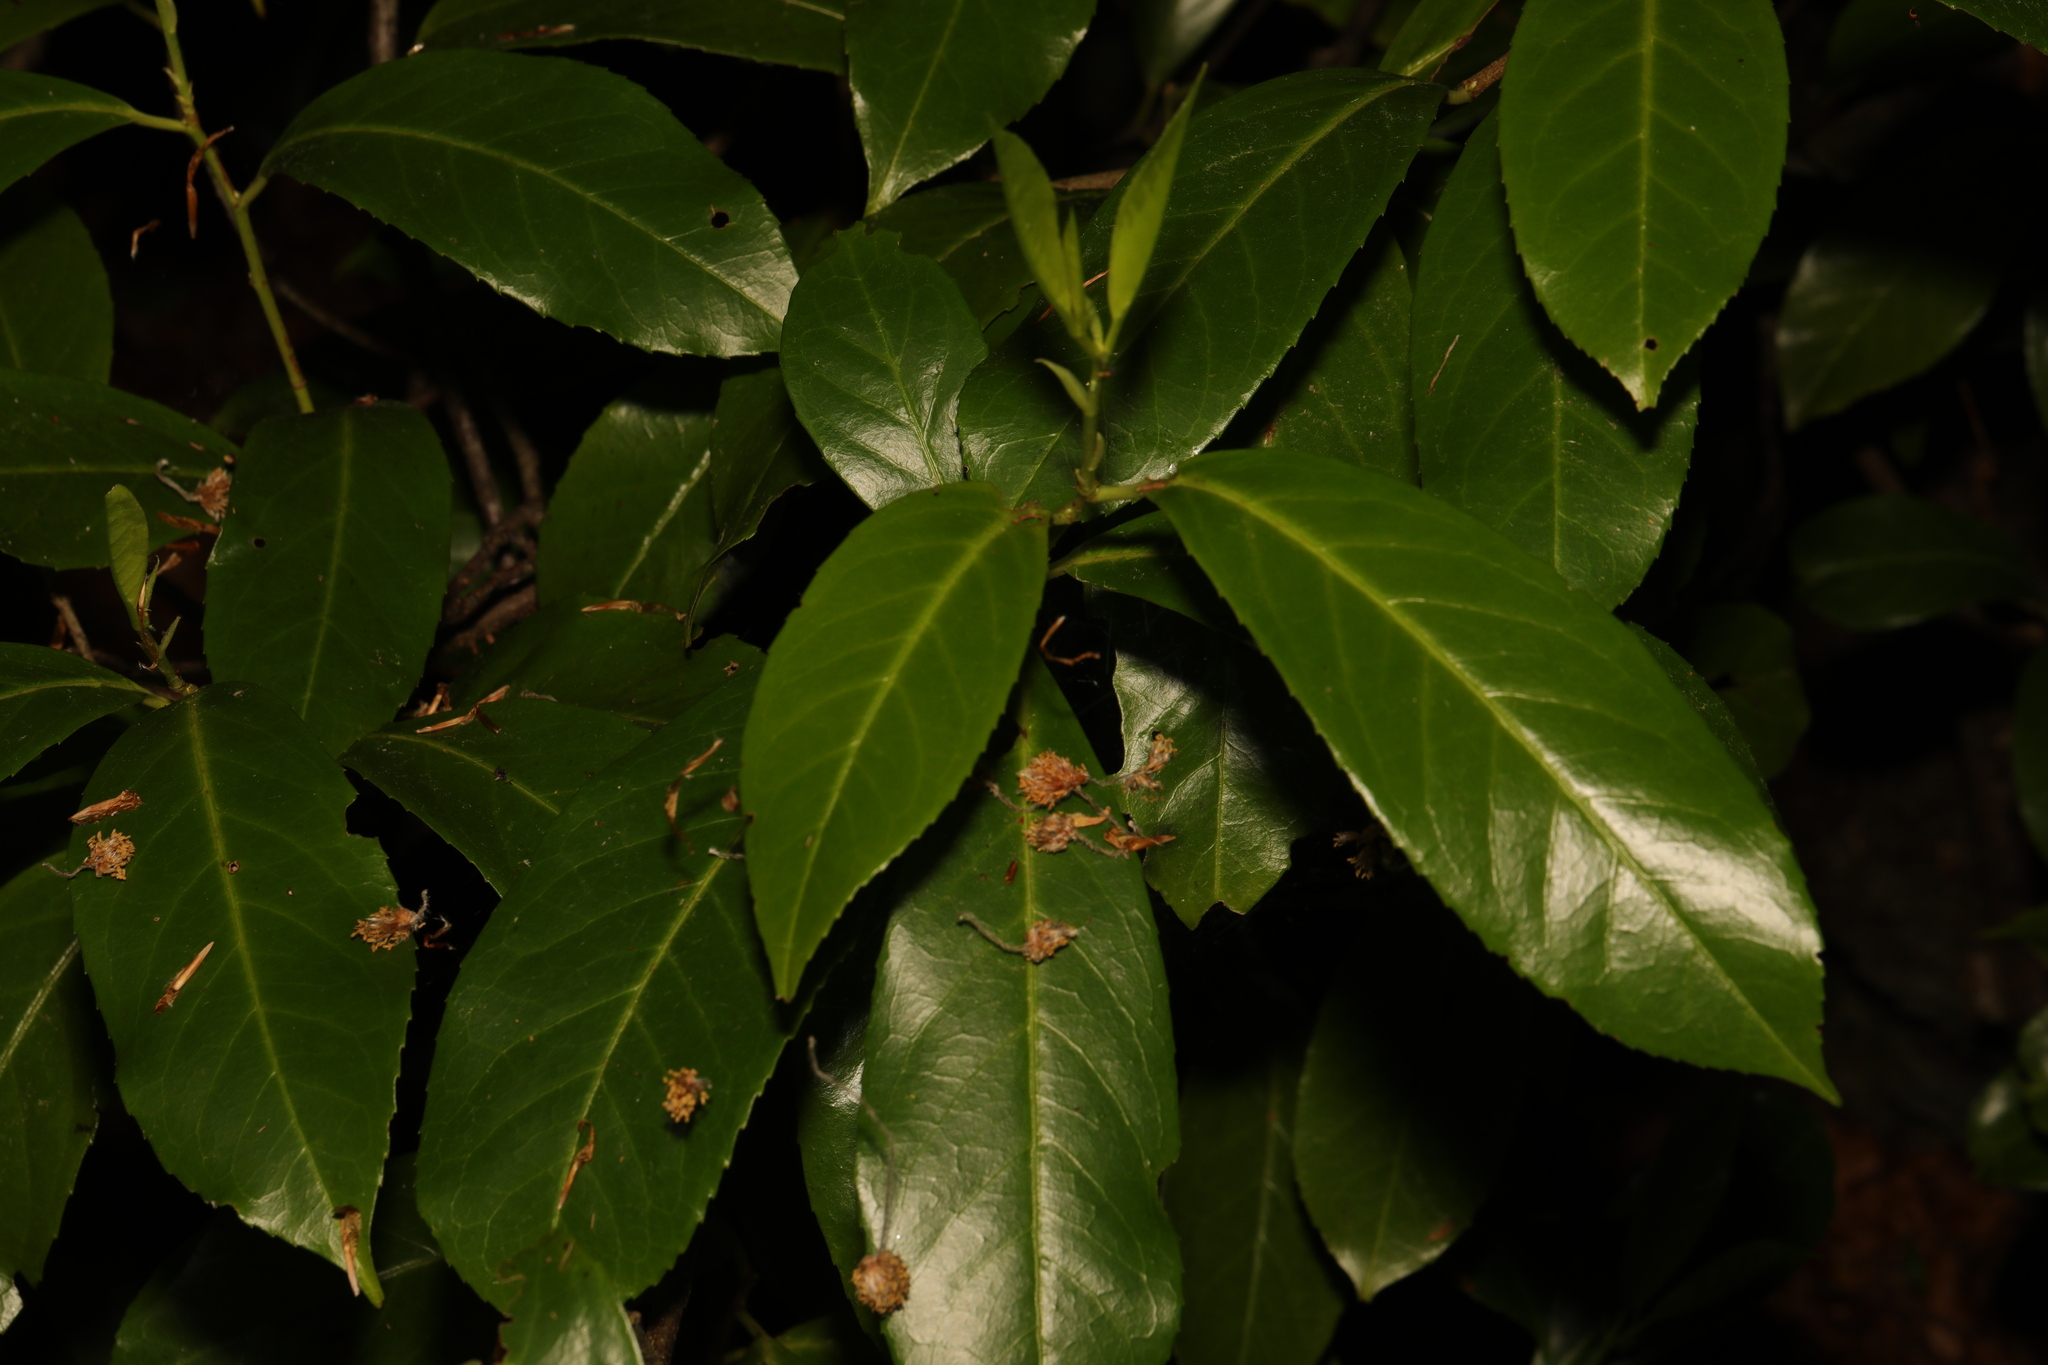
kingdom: Plantae
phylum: Tracheophyta
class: Magnoliopsida
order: Rosales
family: Rosaceae
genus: Prunus
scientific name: Prunus laurocerasus
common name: Cherry laurel
